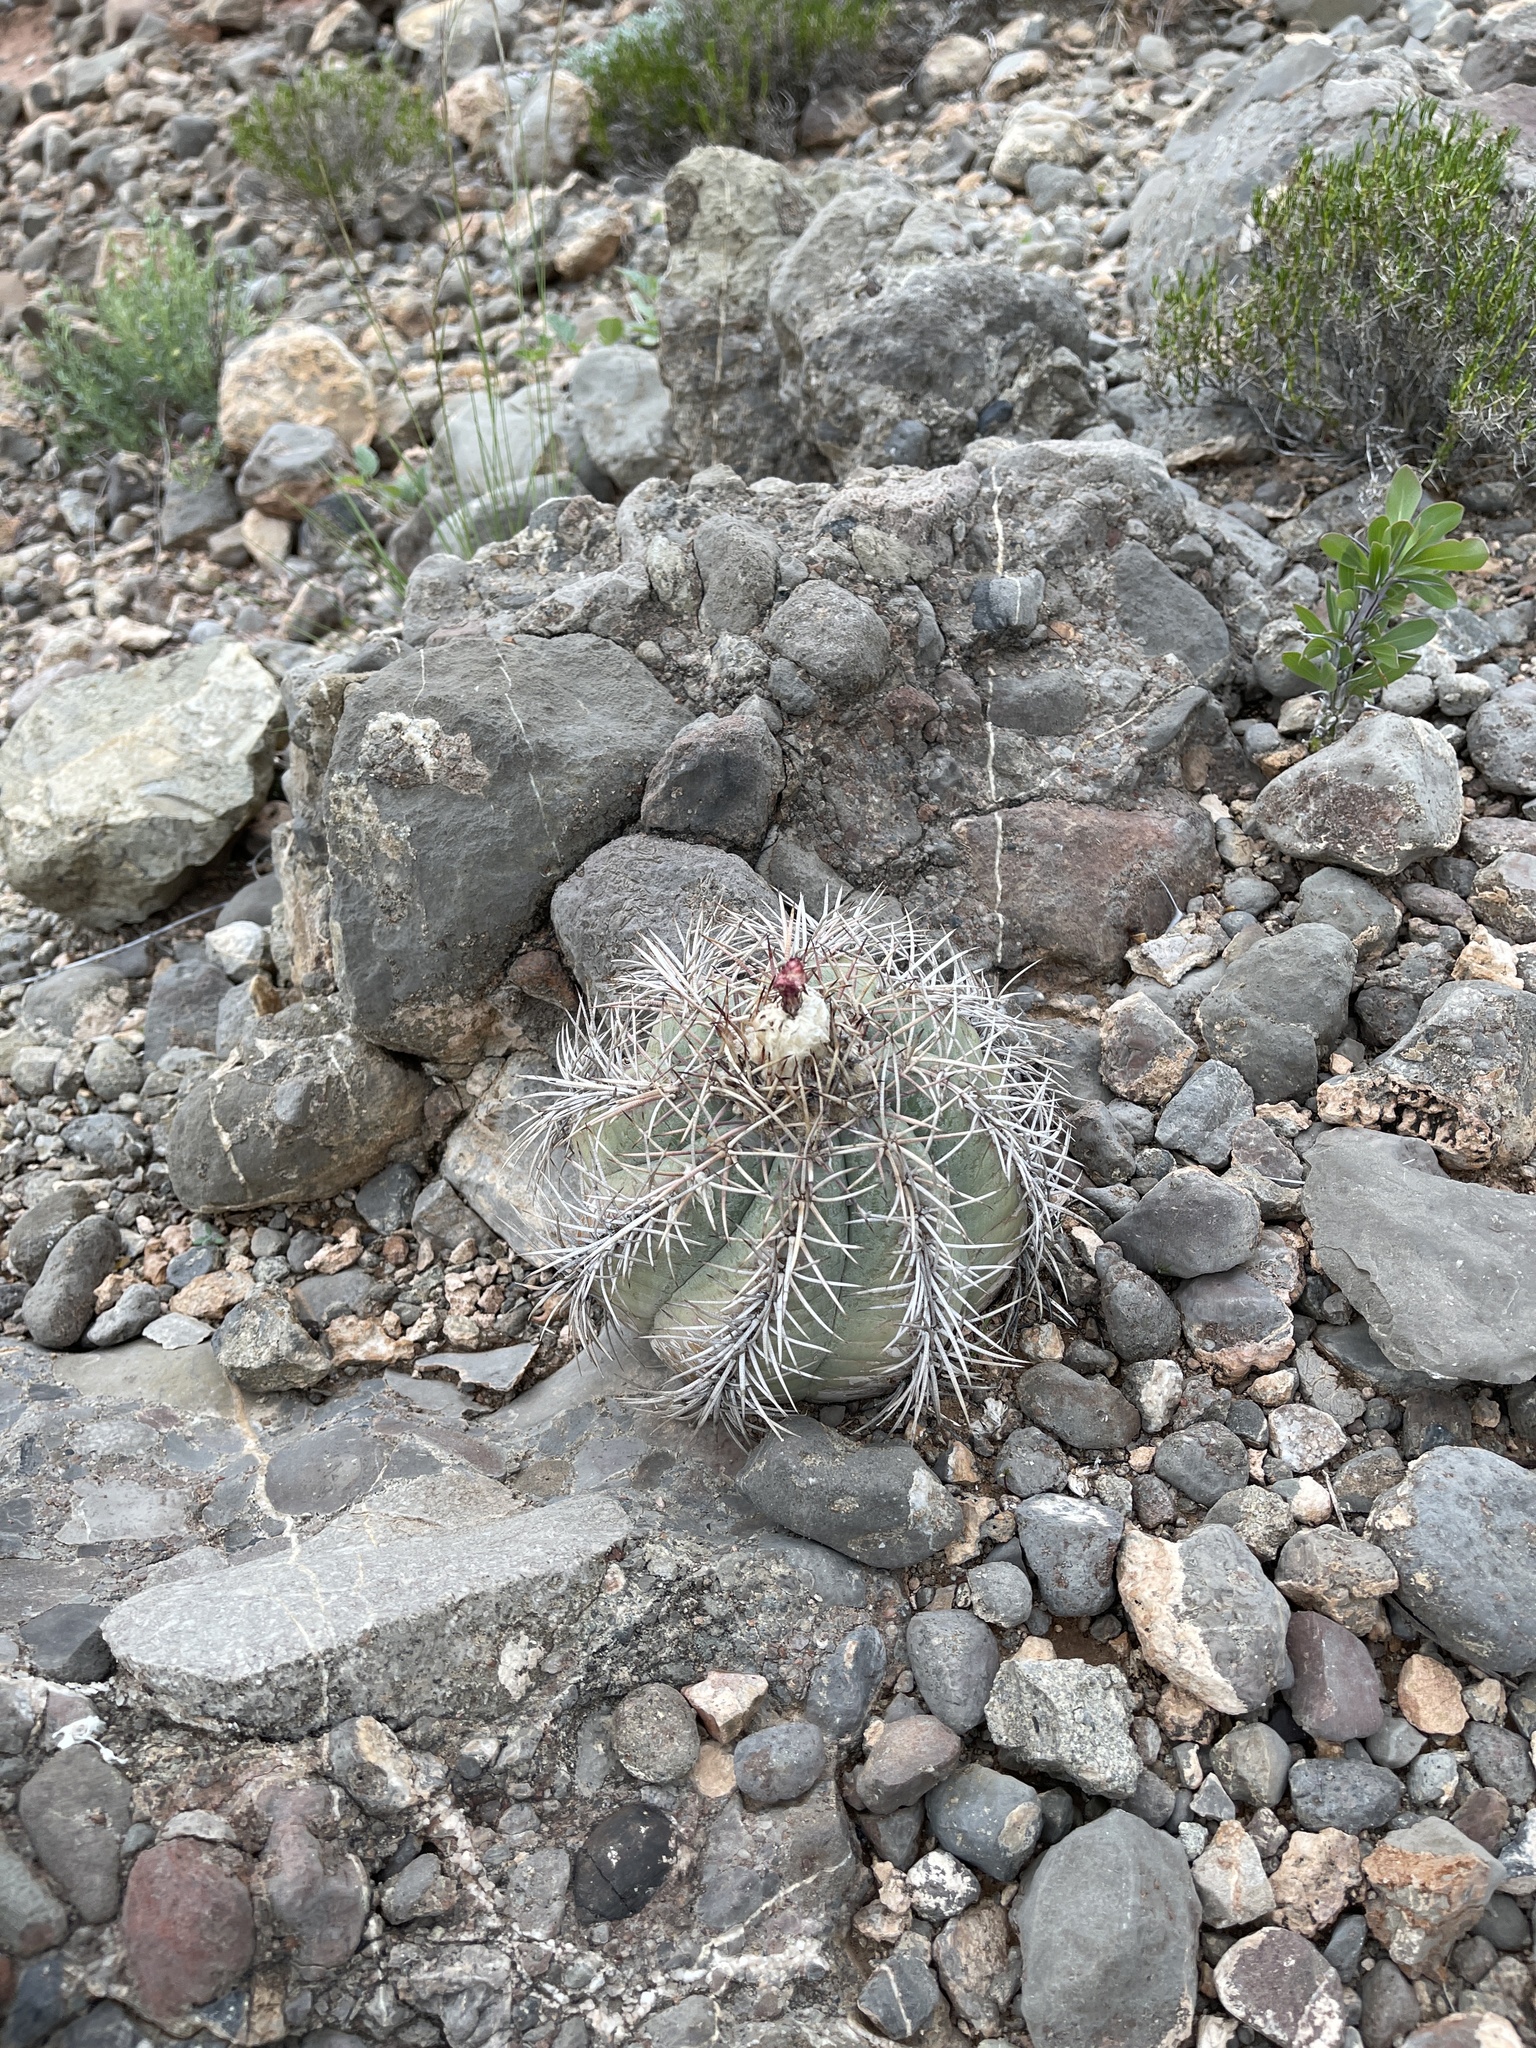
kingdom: Plantae
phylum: Tracheophyta
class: Magnoliopsida
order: Caryophyllales
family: Cactaceae
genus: Echinocactus
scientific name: Echinocactus horizonthalonius
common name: Devilshead
